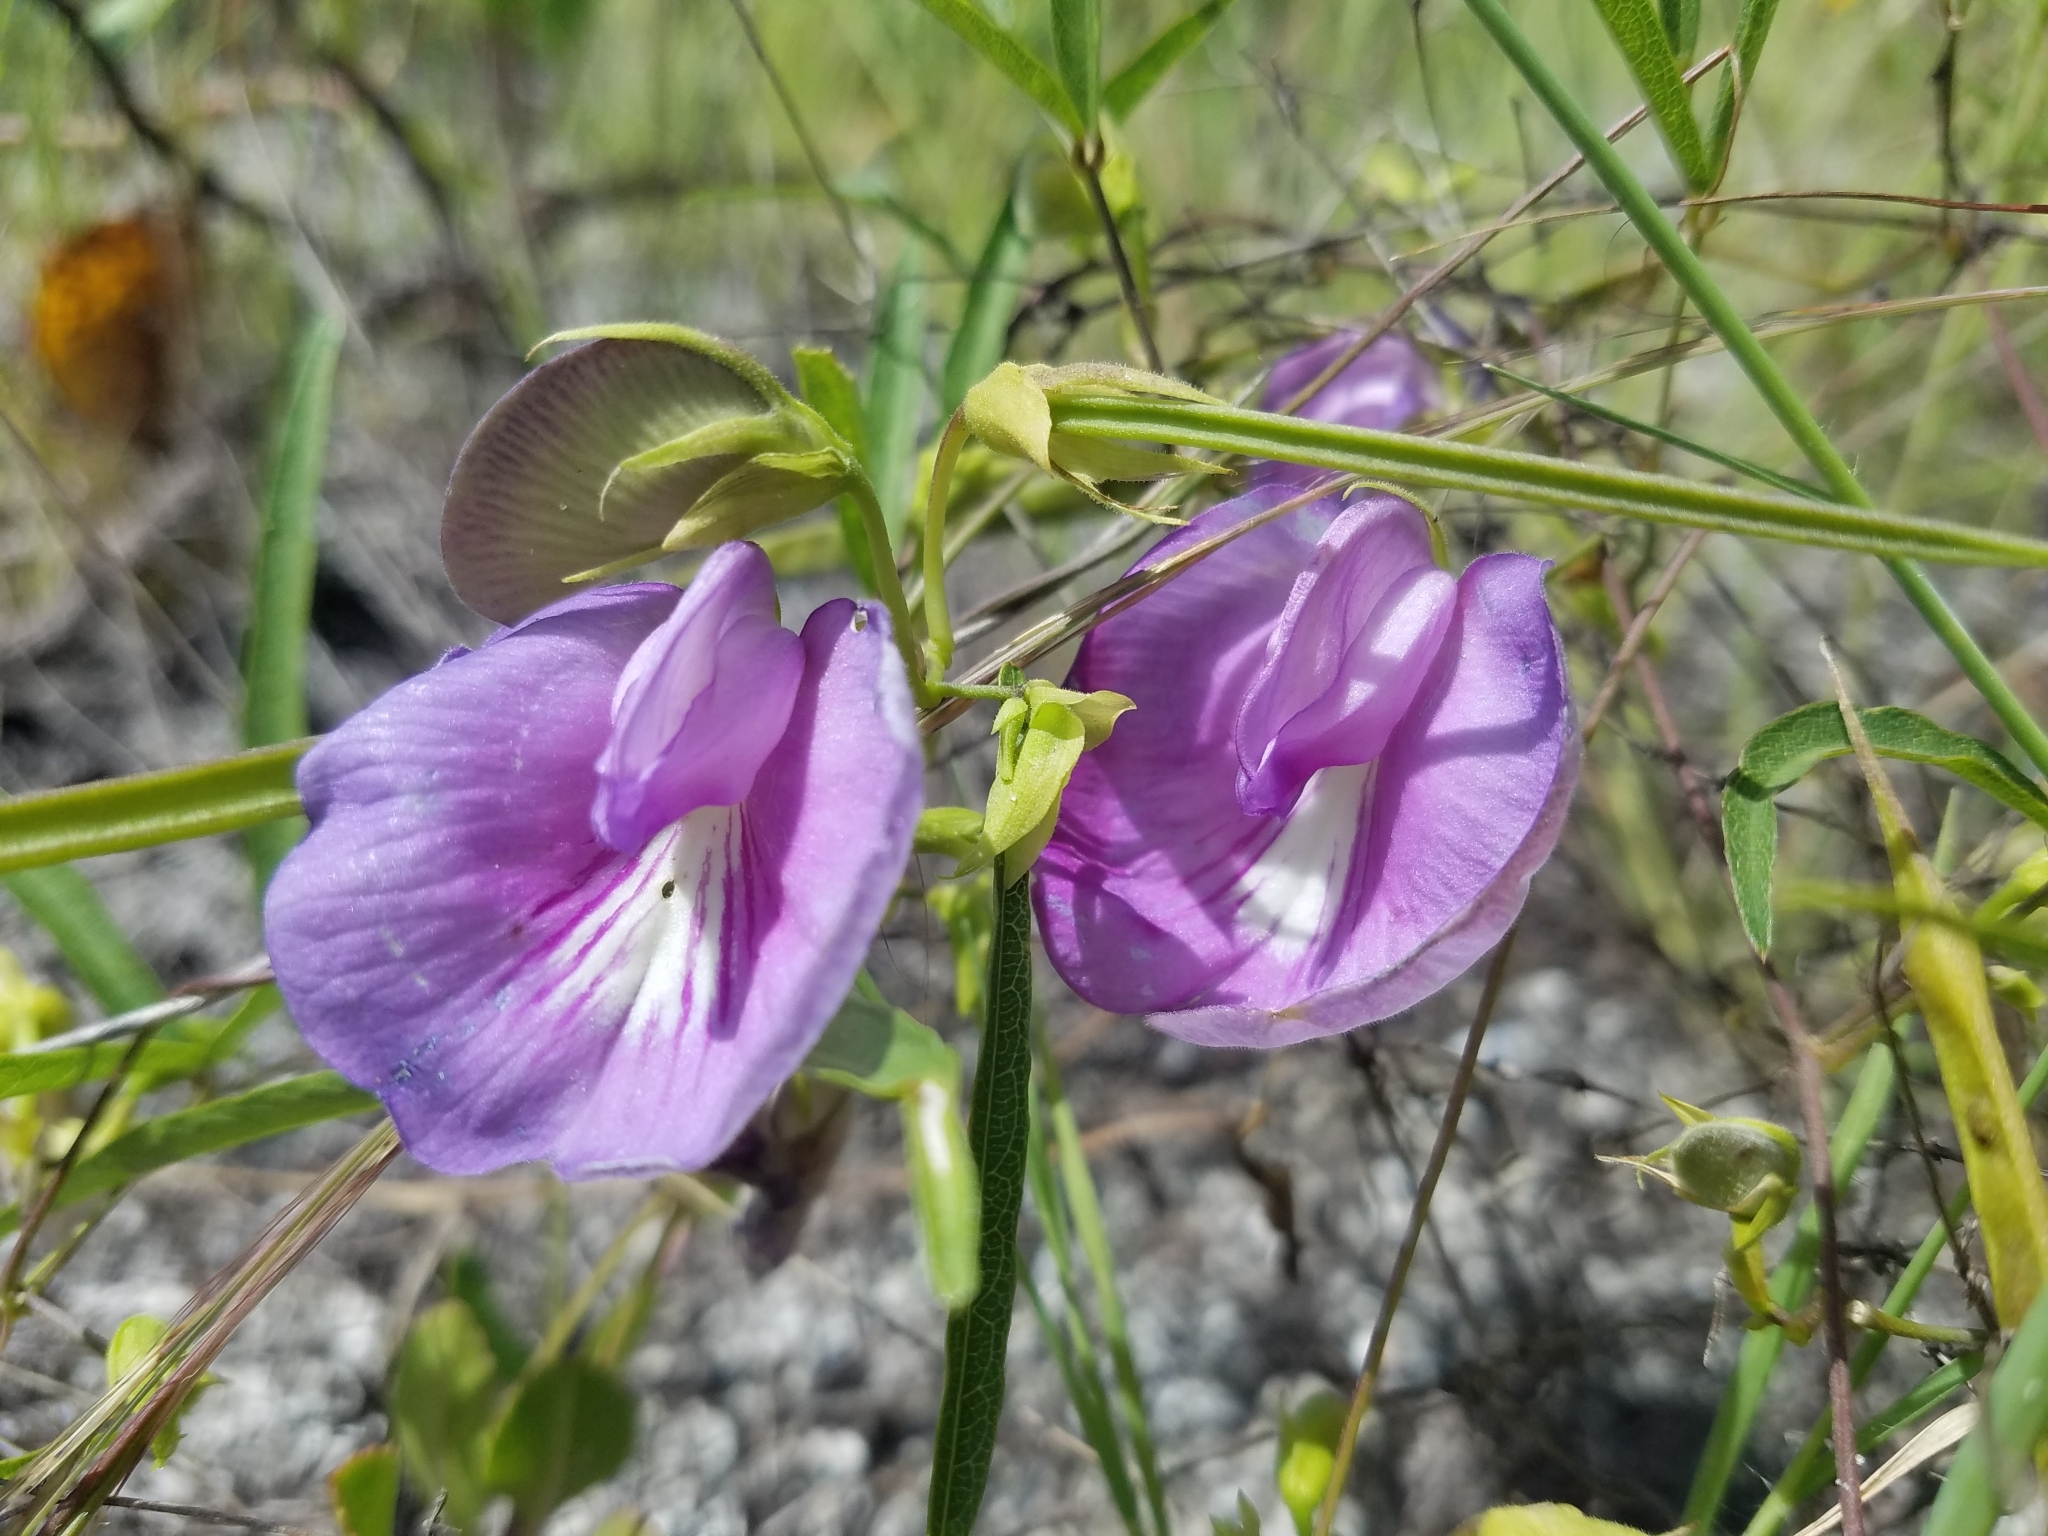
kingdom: Plantae
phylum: Tracheophyta
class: Magnoliopsida
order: Fabales
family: Fabaceae
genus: Centrosema
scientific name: Centrosema virginianum
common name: Butterfly-pea
